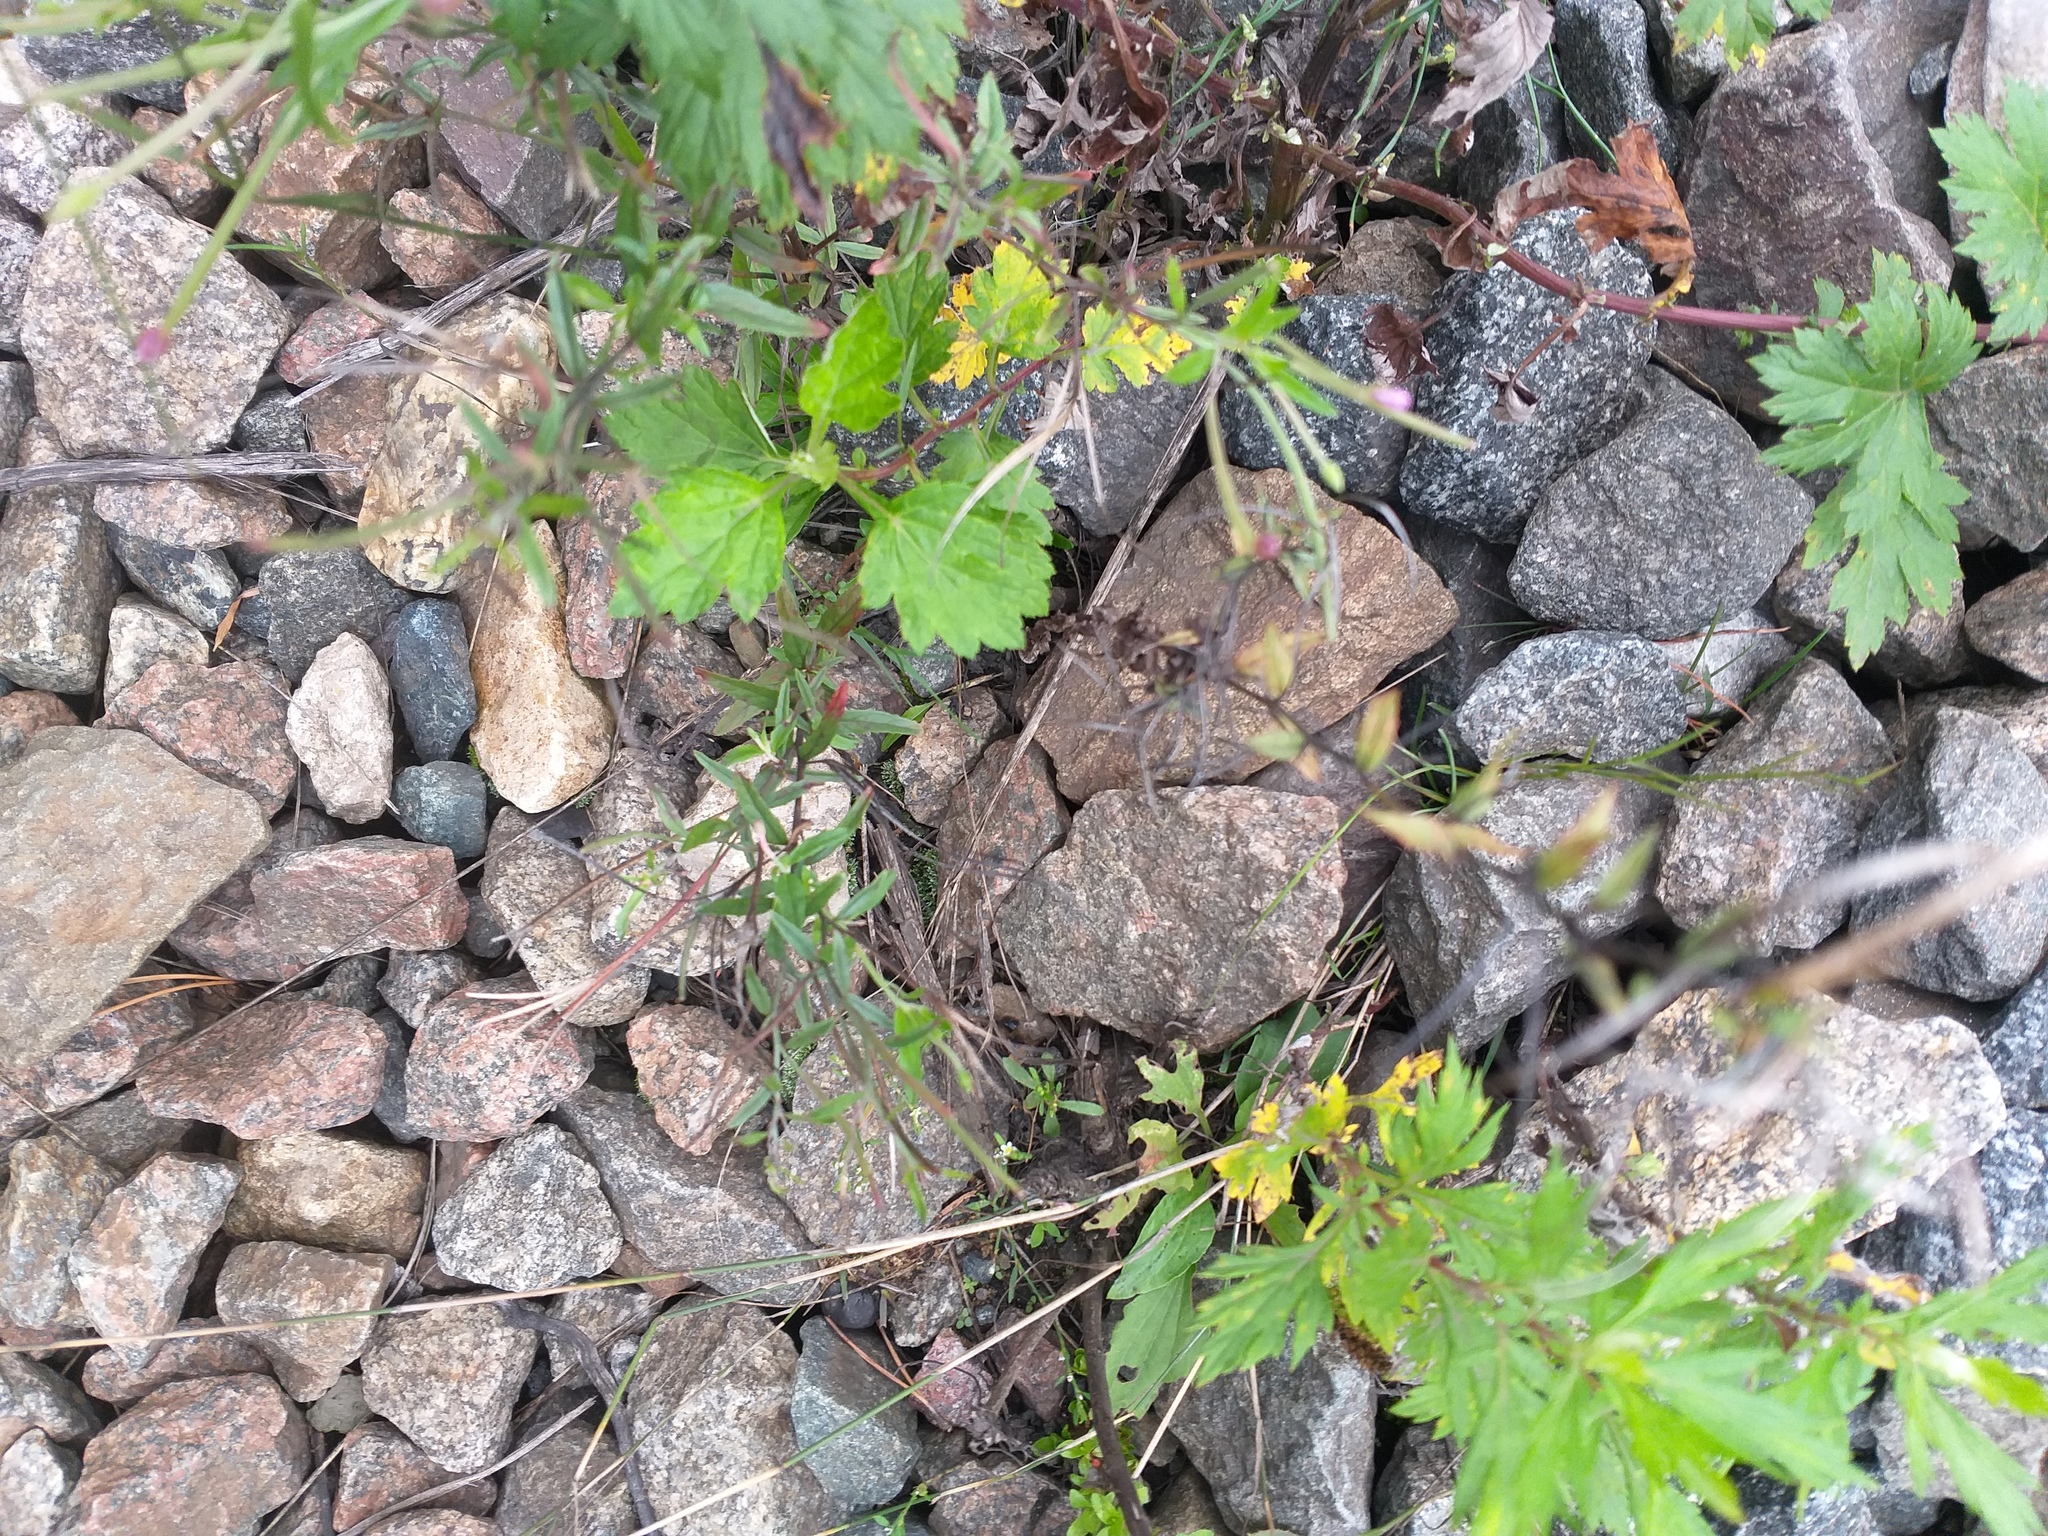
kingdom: Plantae
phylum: Tracheophyta
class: Magnoliopsida
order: Myrtales
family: Onagraceae
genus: Epilobium
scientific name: Epilobium tetragonum
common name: Square-stemmed willowherb
